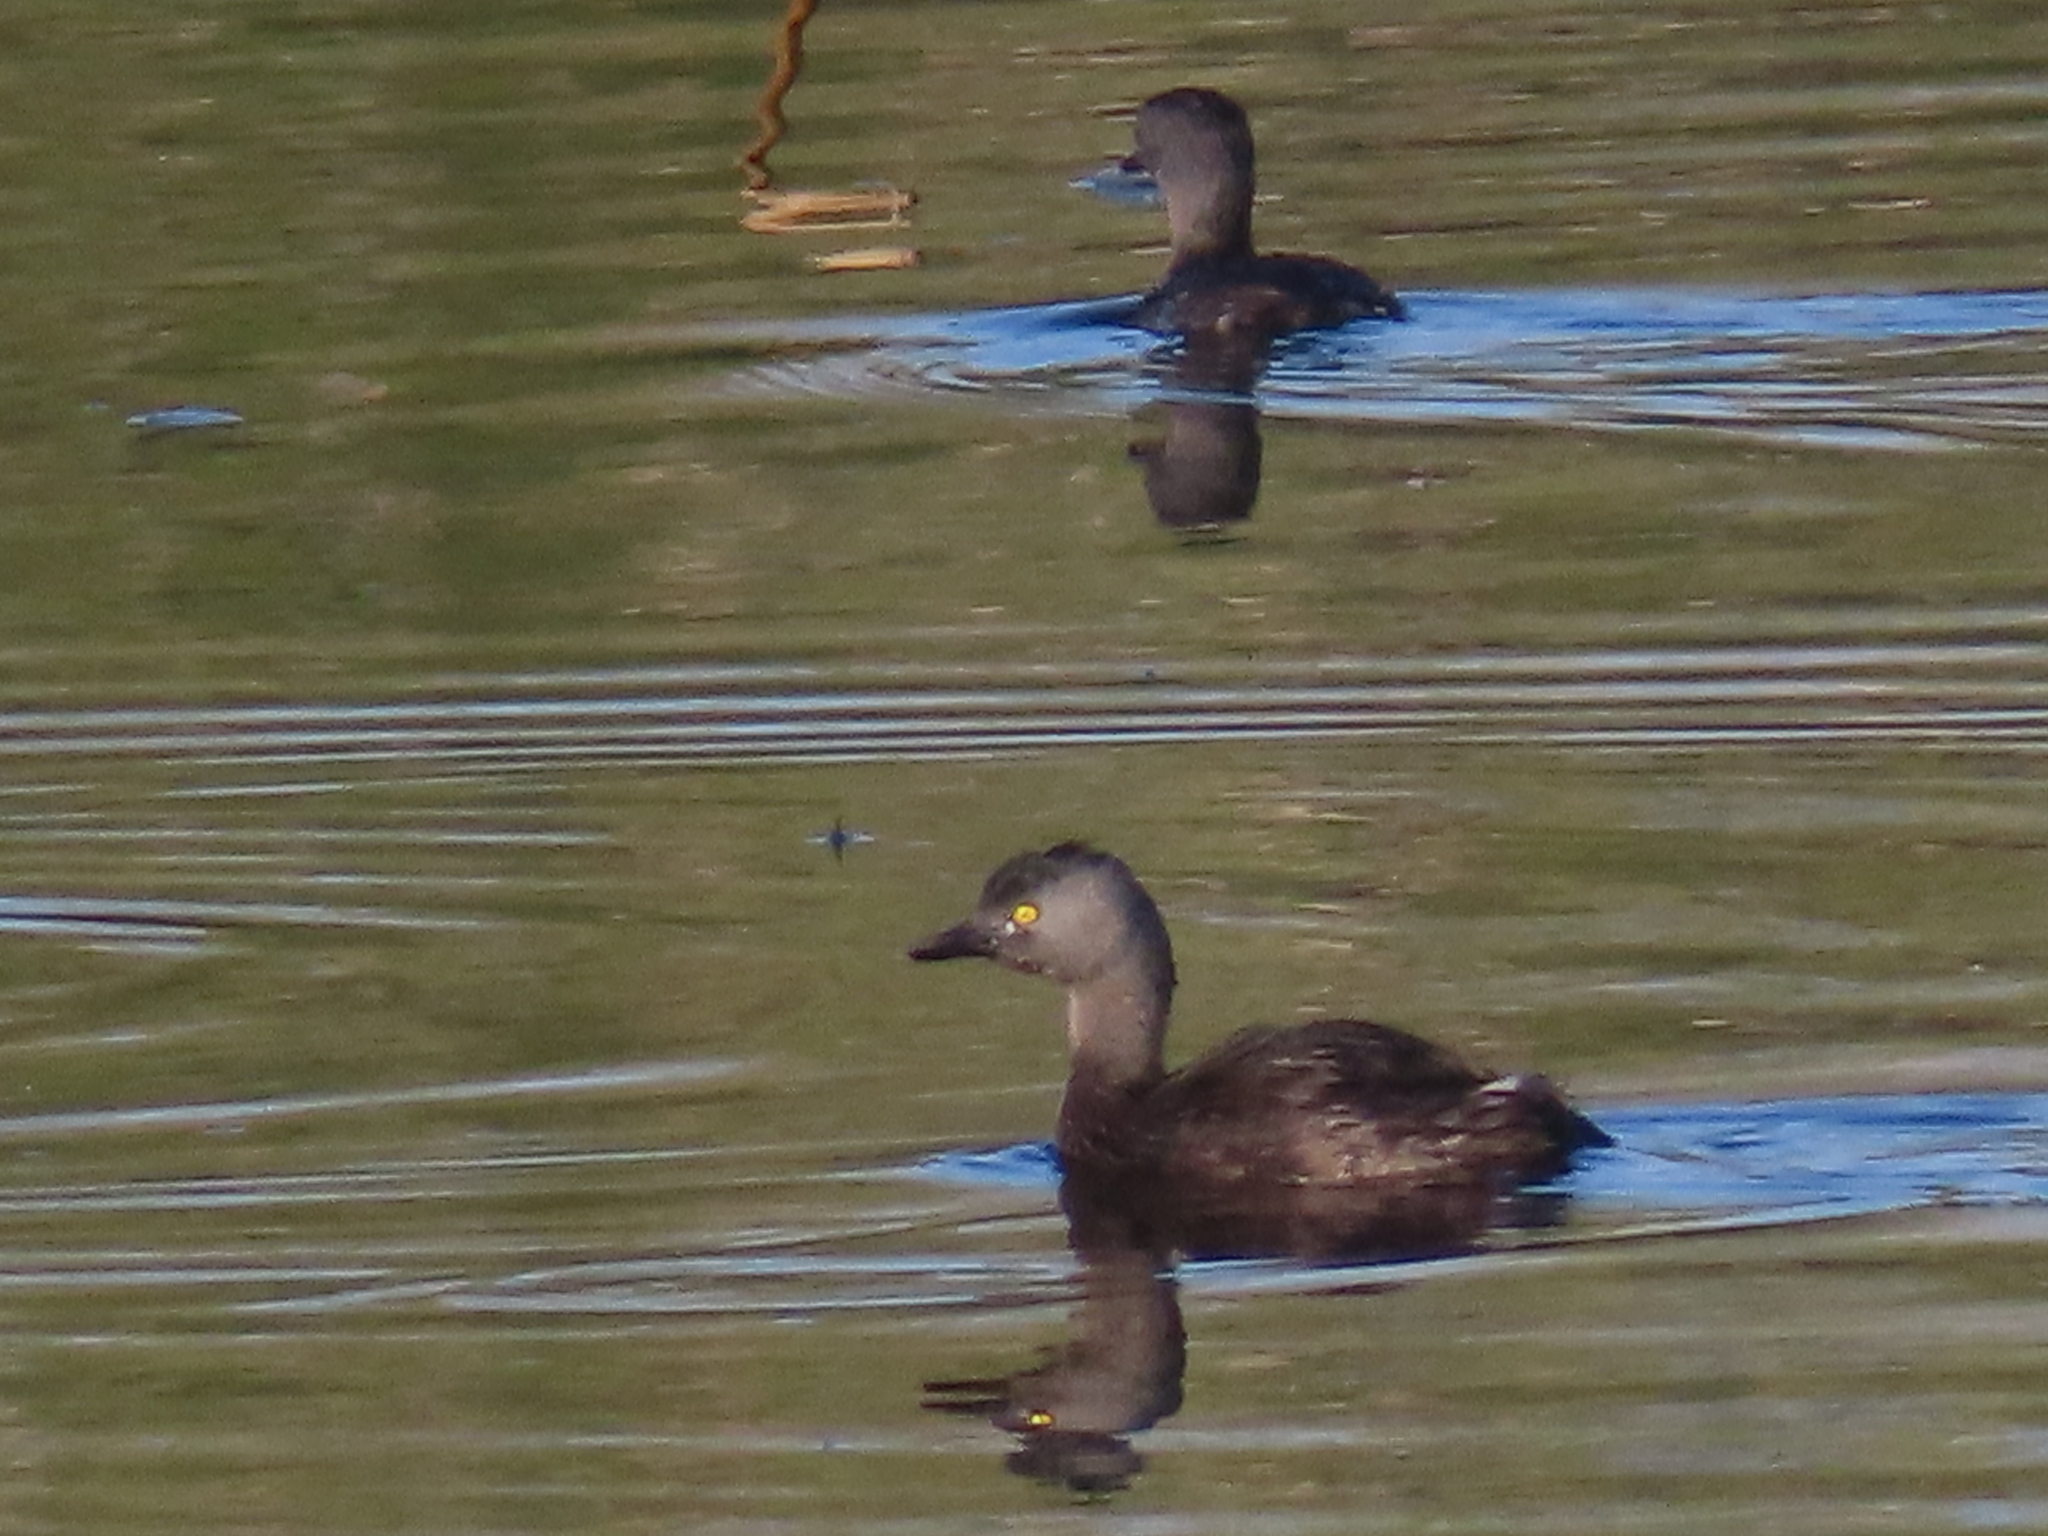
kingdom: Animalia
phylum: Chordata
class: Aves
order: Podicipediformes
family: Podicipedidae
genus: Tachybaptus
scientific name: Tachybaptus dominicus
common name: Least grebe
